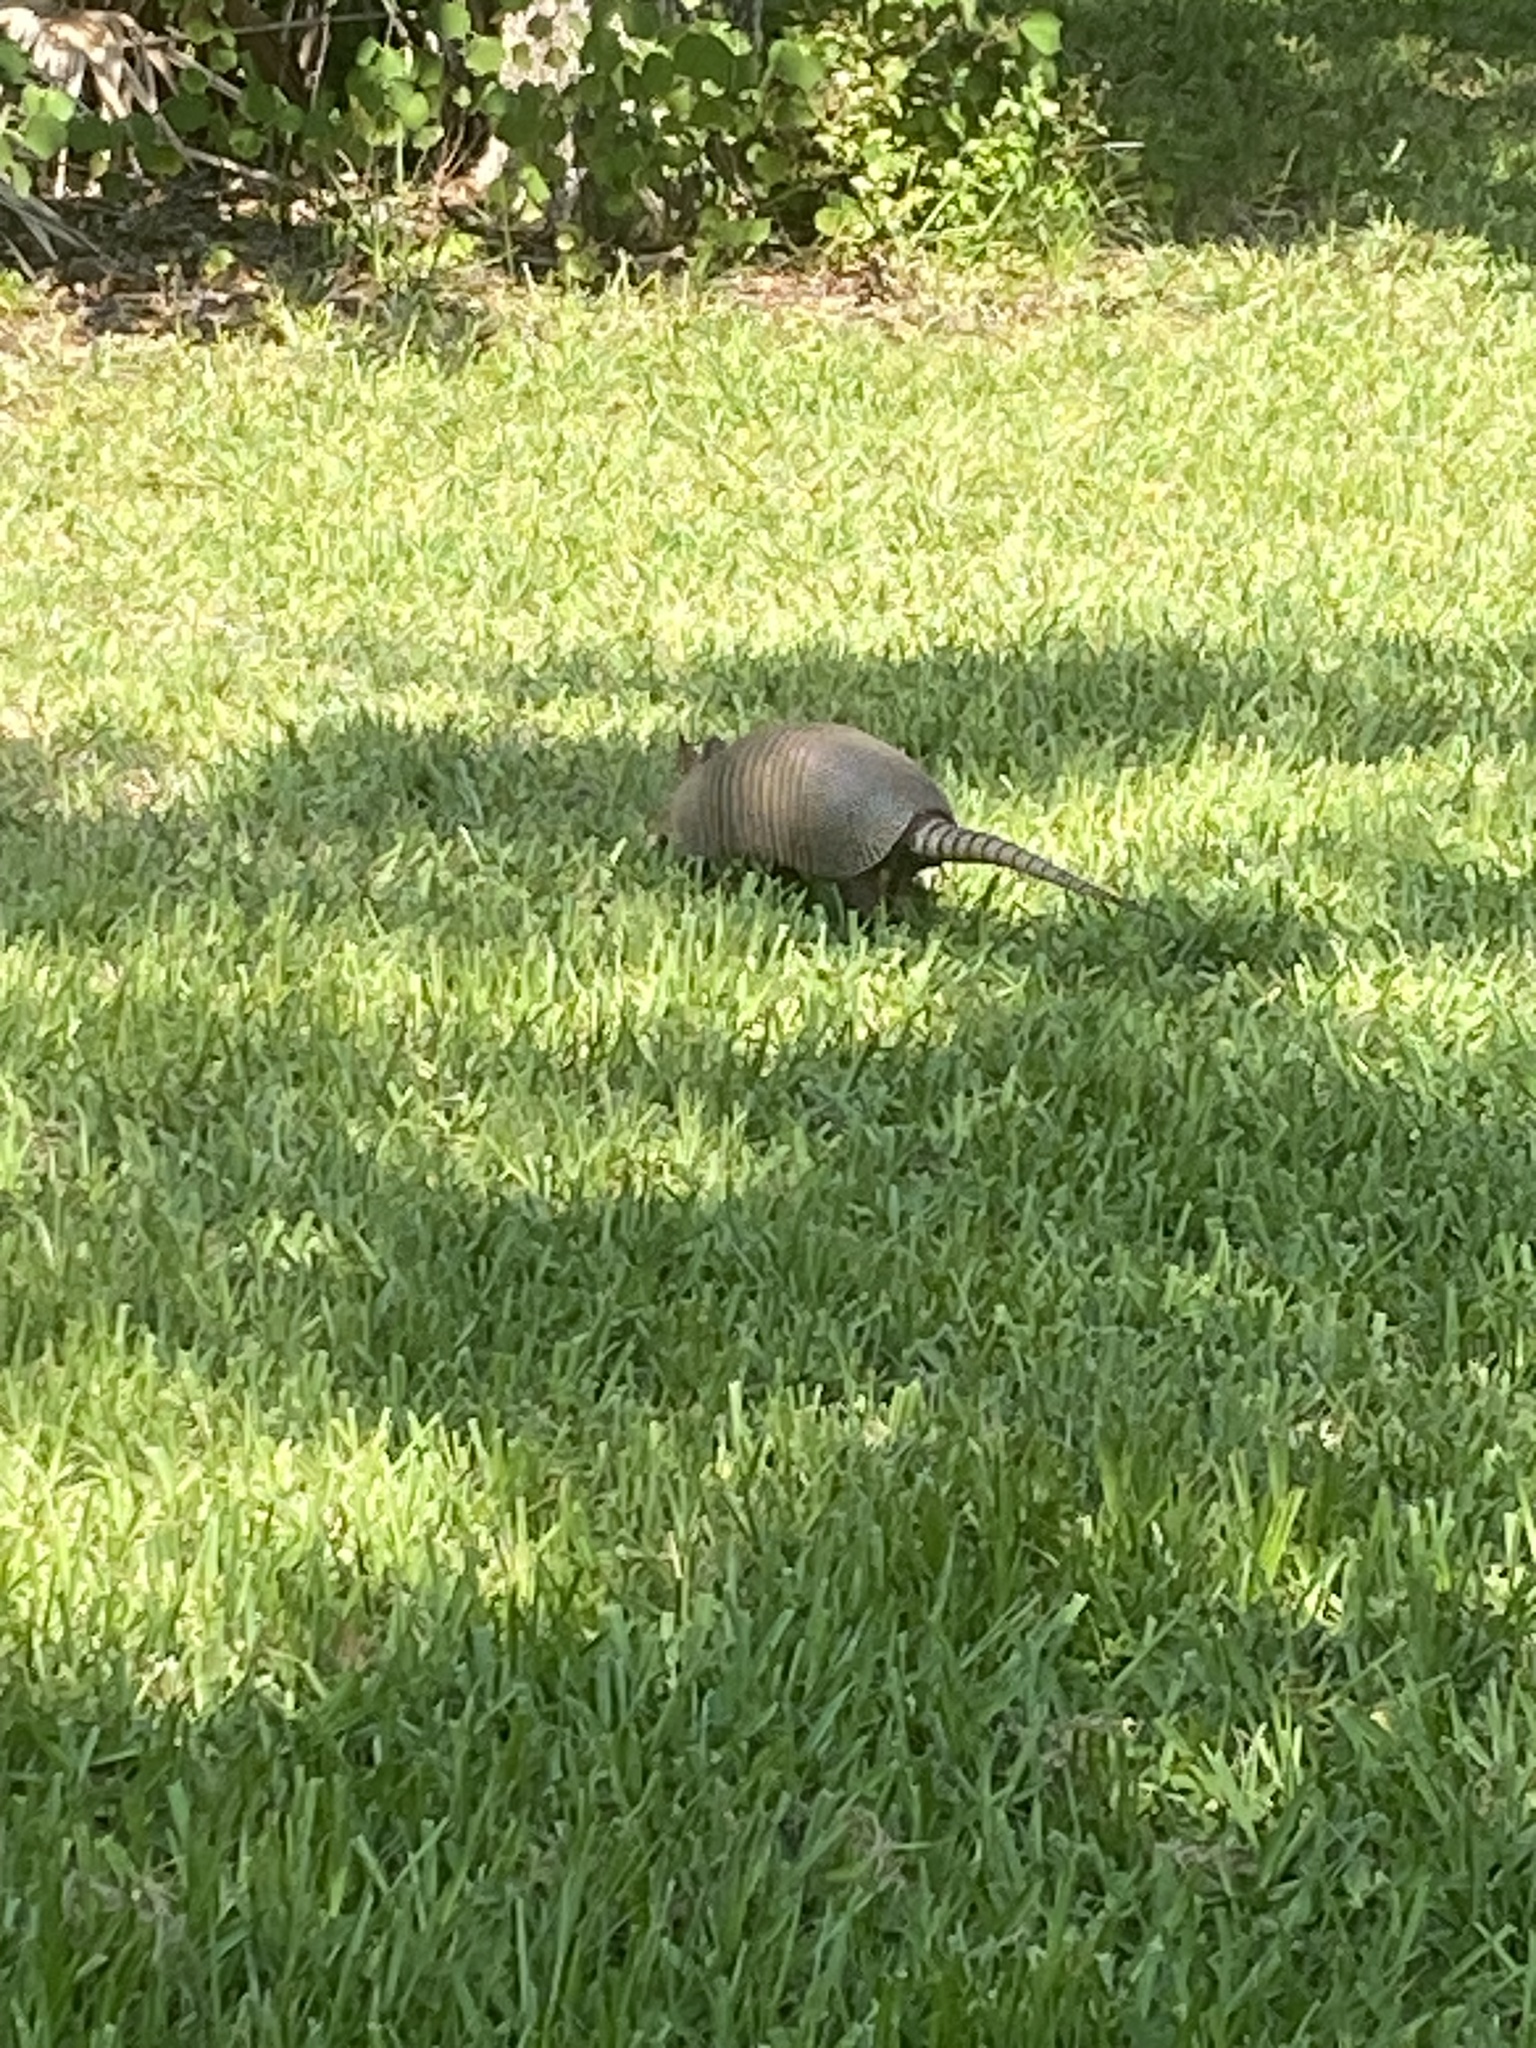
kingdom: Animalia
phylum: Chordata
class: Mammalia
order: Cingulata
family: Dasypodidae
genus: Dasypus
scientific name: Dasypus novemcinctus
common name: Nine-banded armadillo
